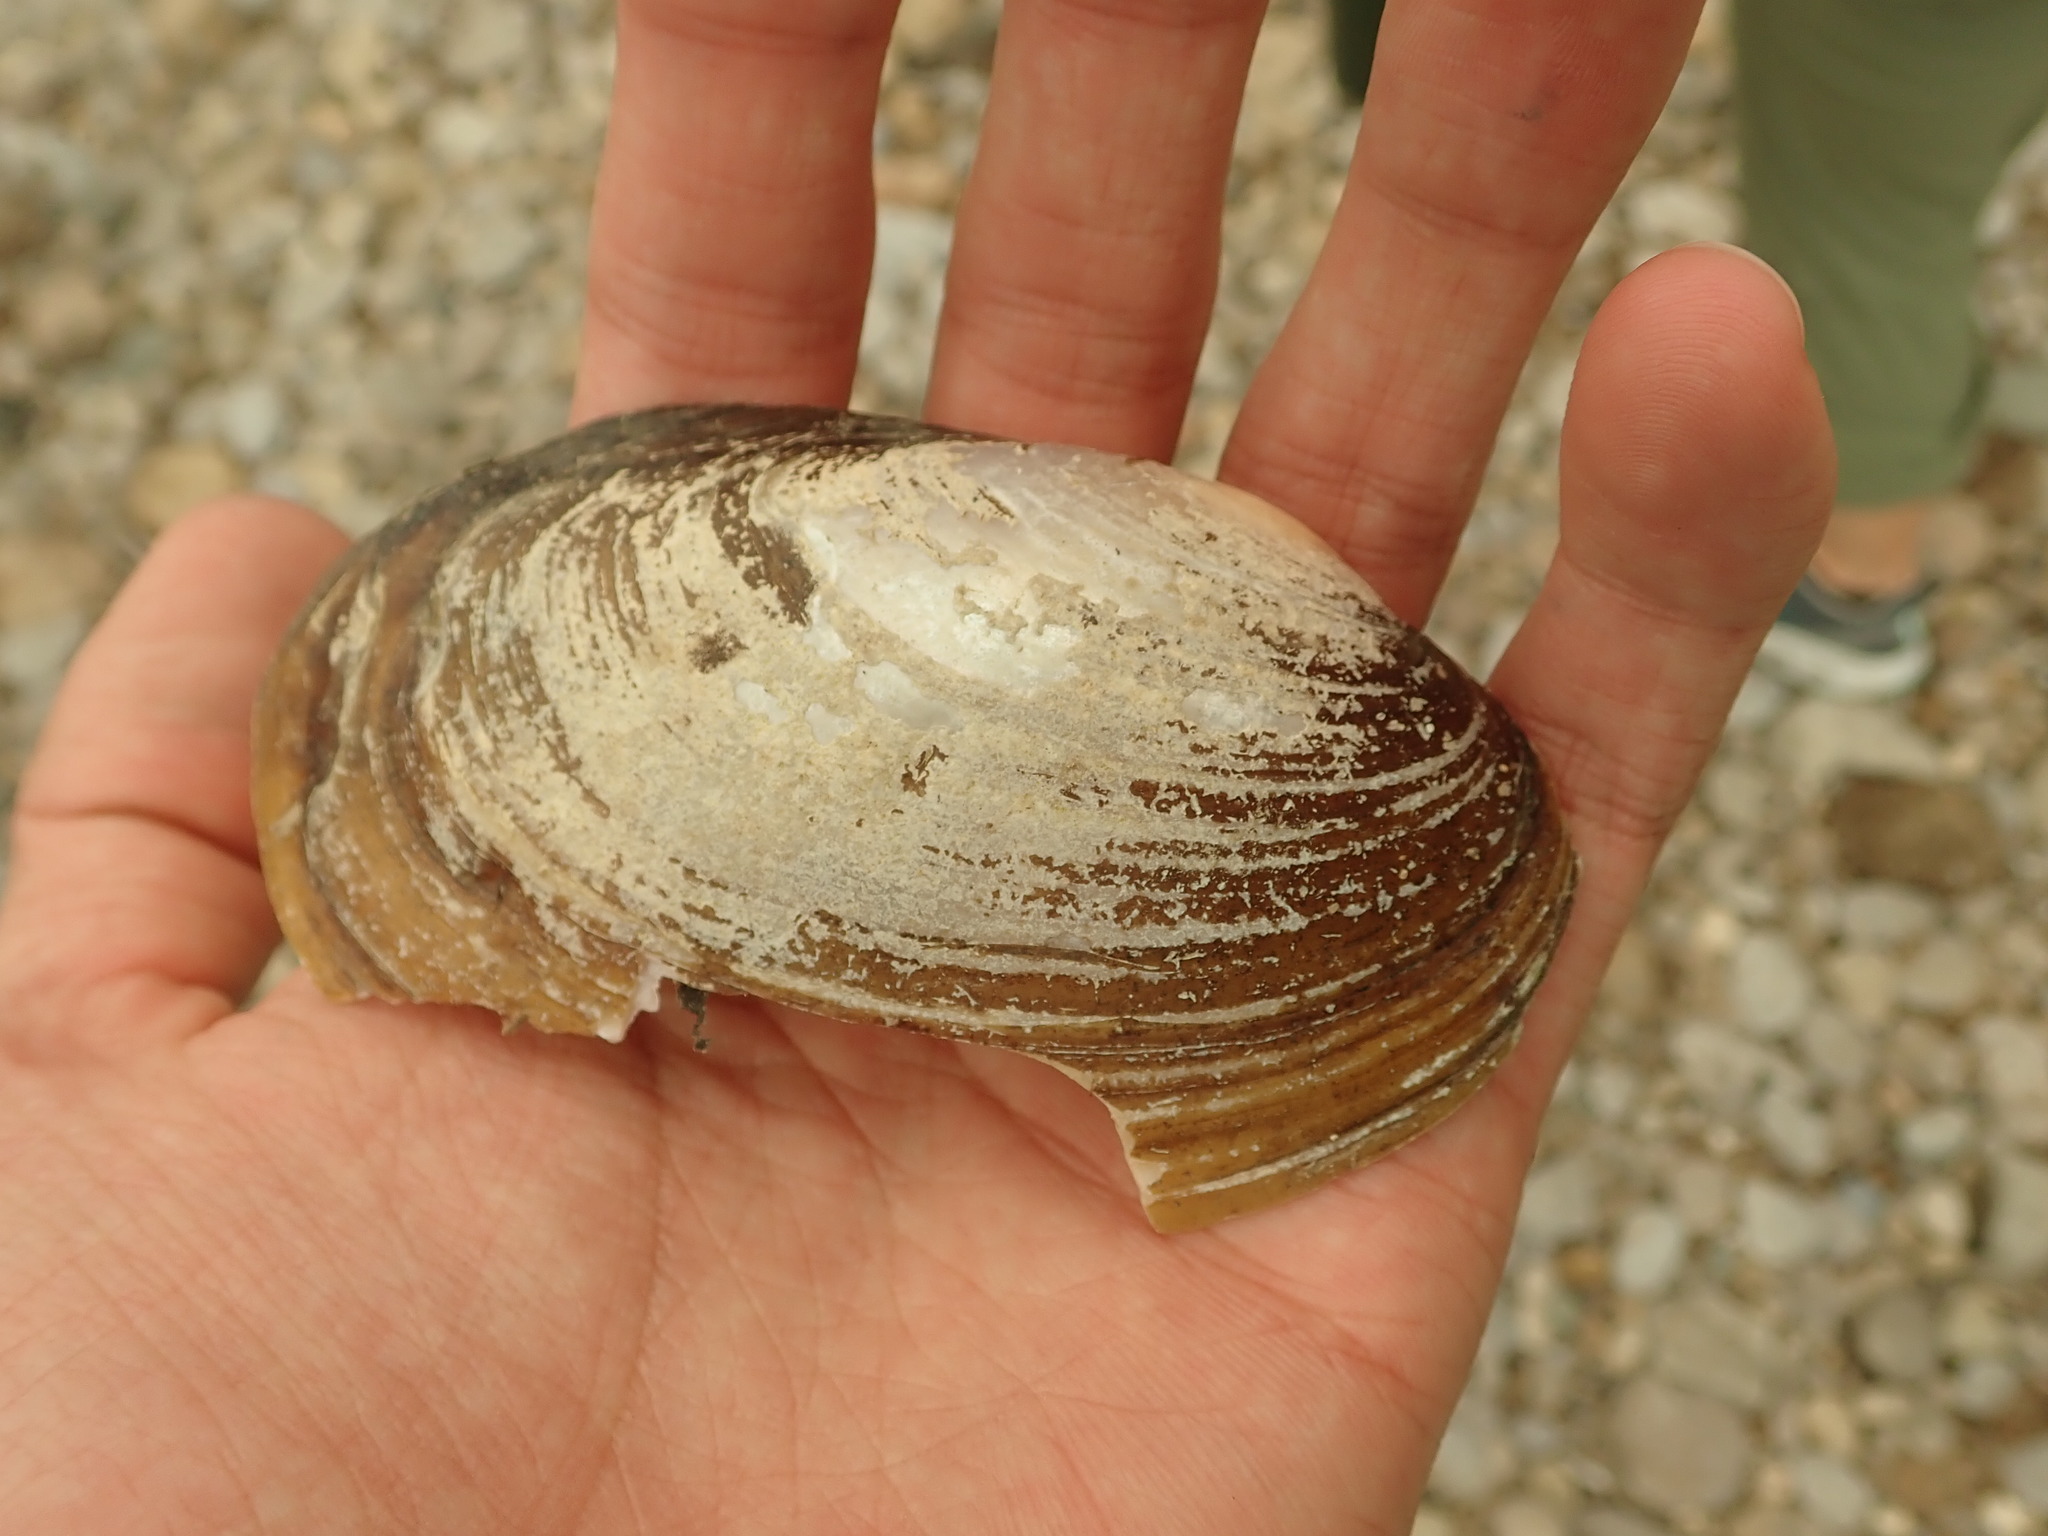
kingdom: Animalia
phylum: Mollusca
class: Bivalvia
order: Unionida
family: Unionidae
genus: Potamilus
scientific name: Potamilus fragilis
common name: Fragile papershell
